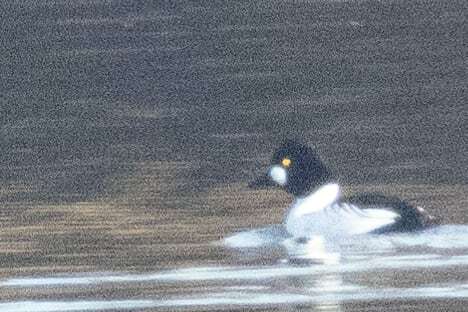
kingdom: Animalia
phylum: Chordata
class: Aves
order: Anseriformes
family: Anatidae
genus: Bucephala
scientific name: Bucephala clangula
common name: Common goldeneye
